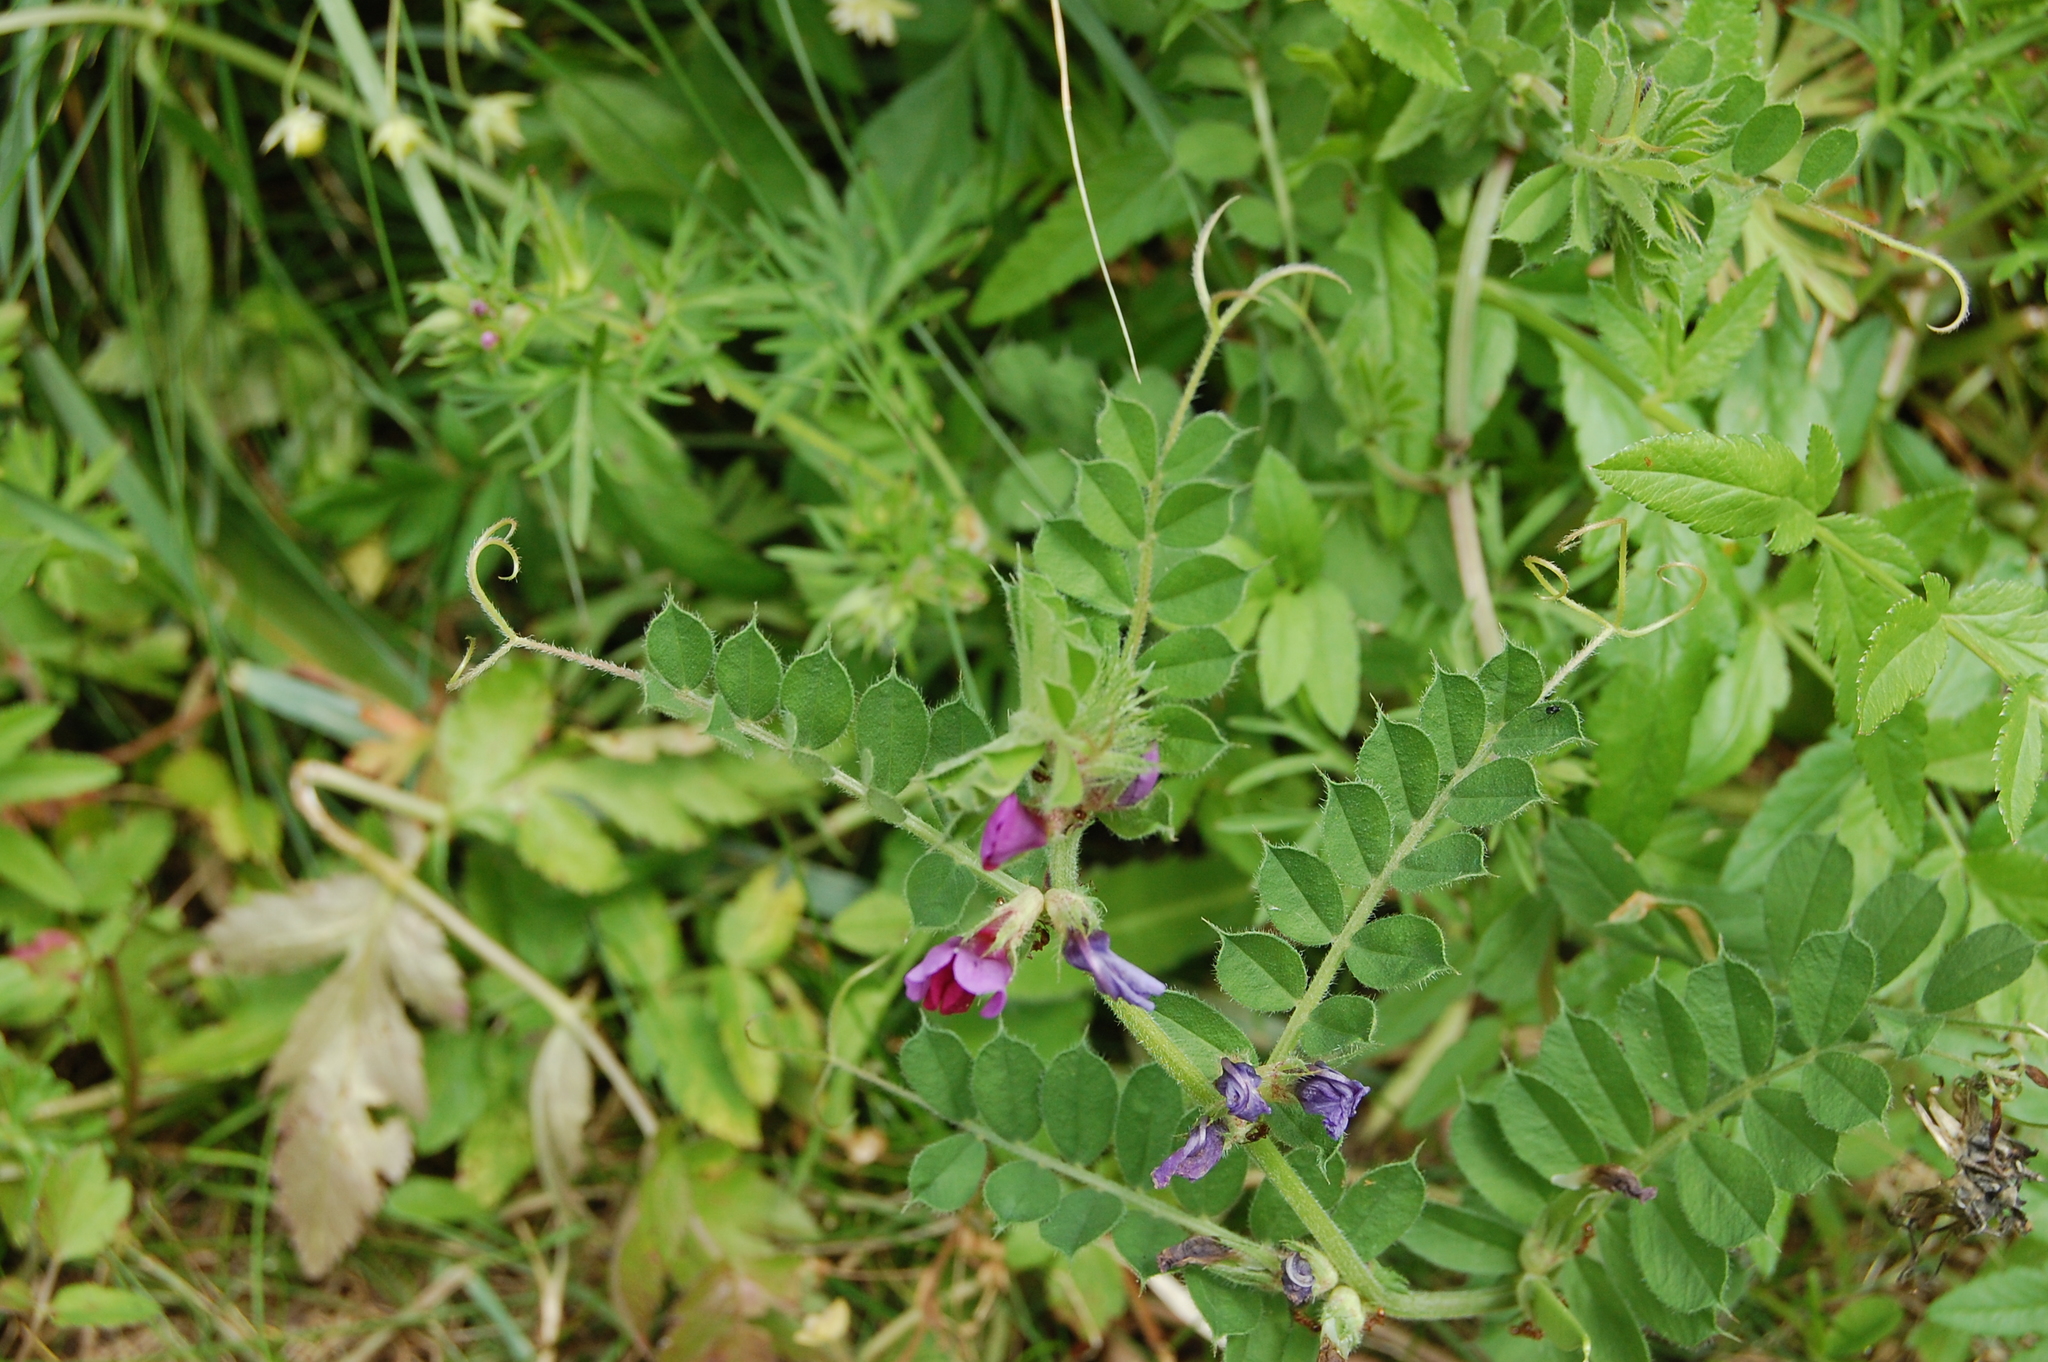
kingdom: Plantae
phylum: Tracheophyta
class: Magnoliopsida
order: Fabales
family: Fabaceae
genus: Vicia
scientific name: Vicia sativa
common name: Garden vetch
